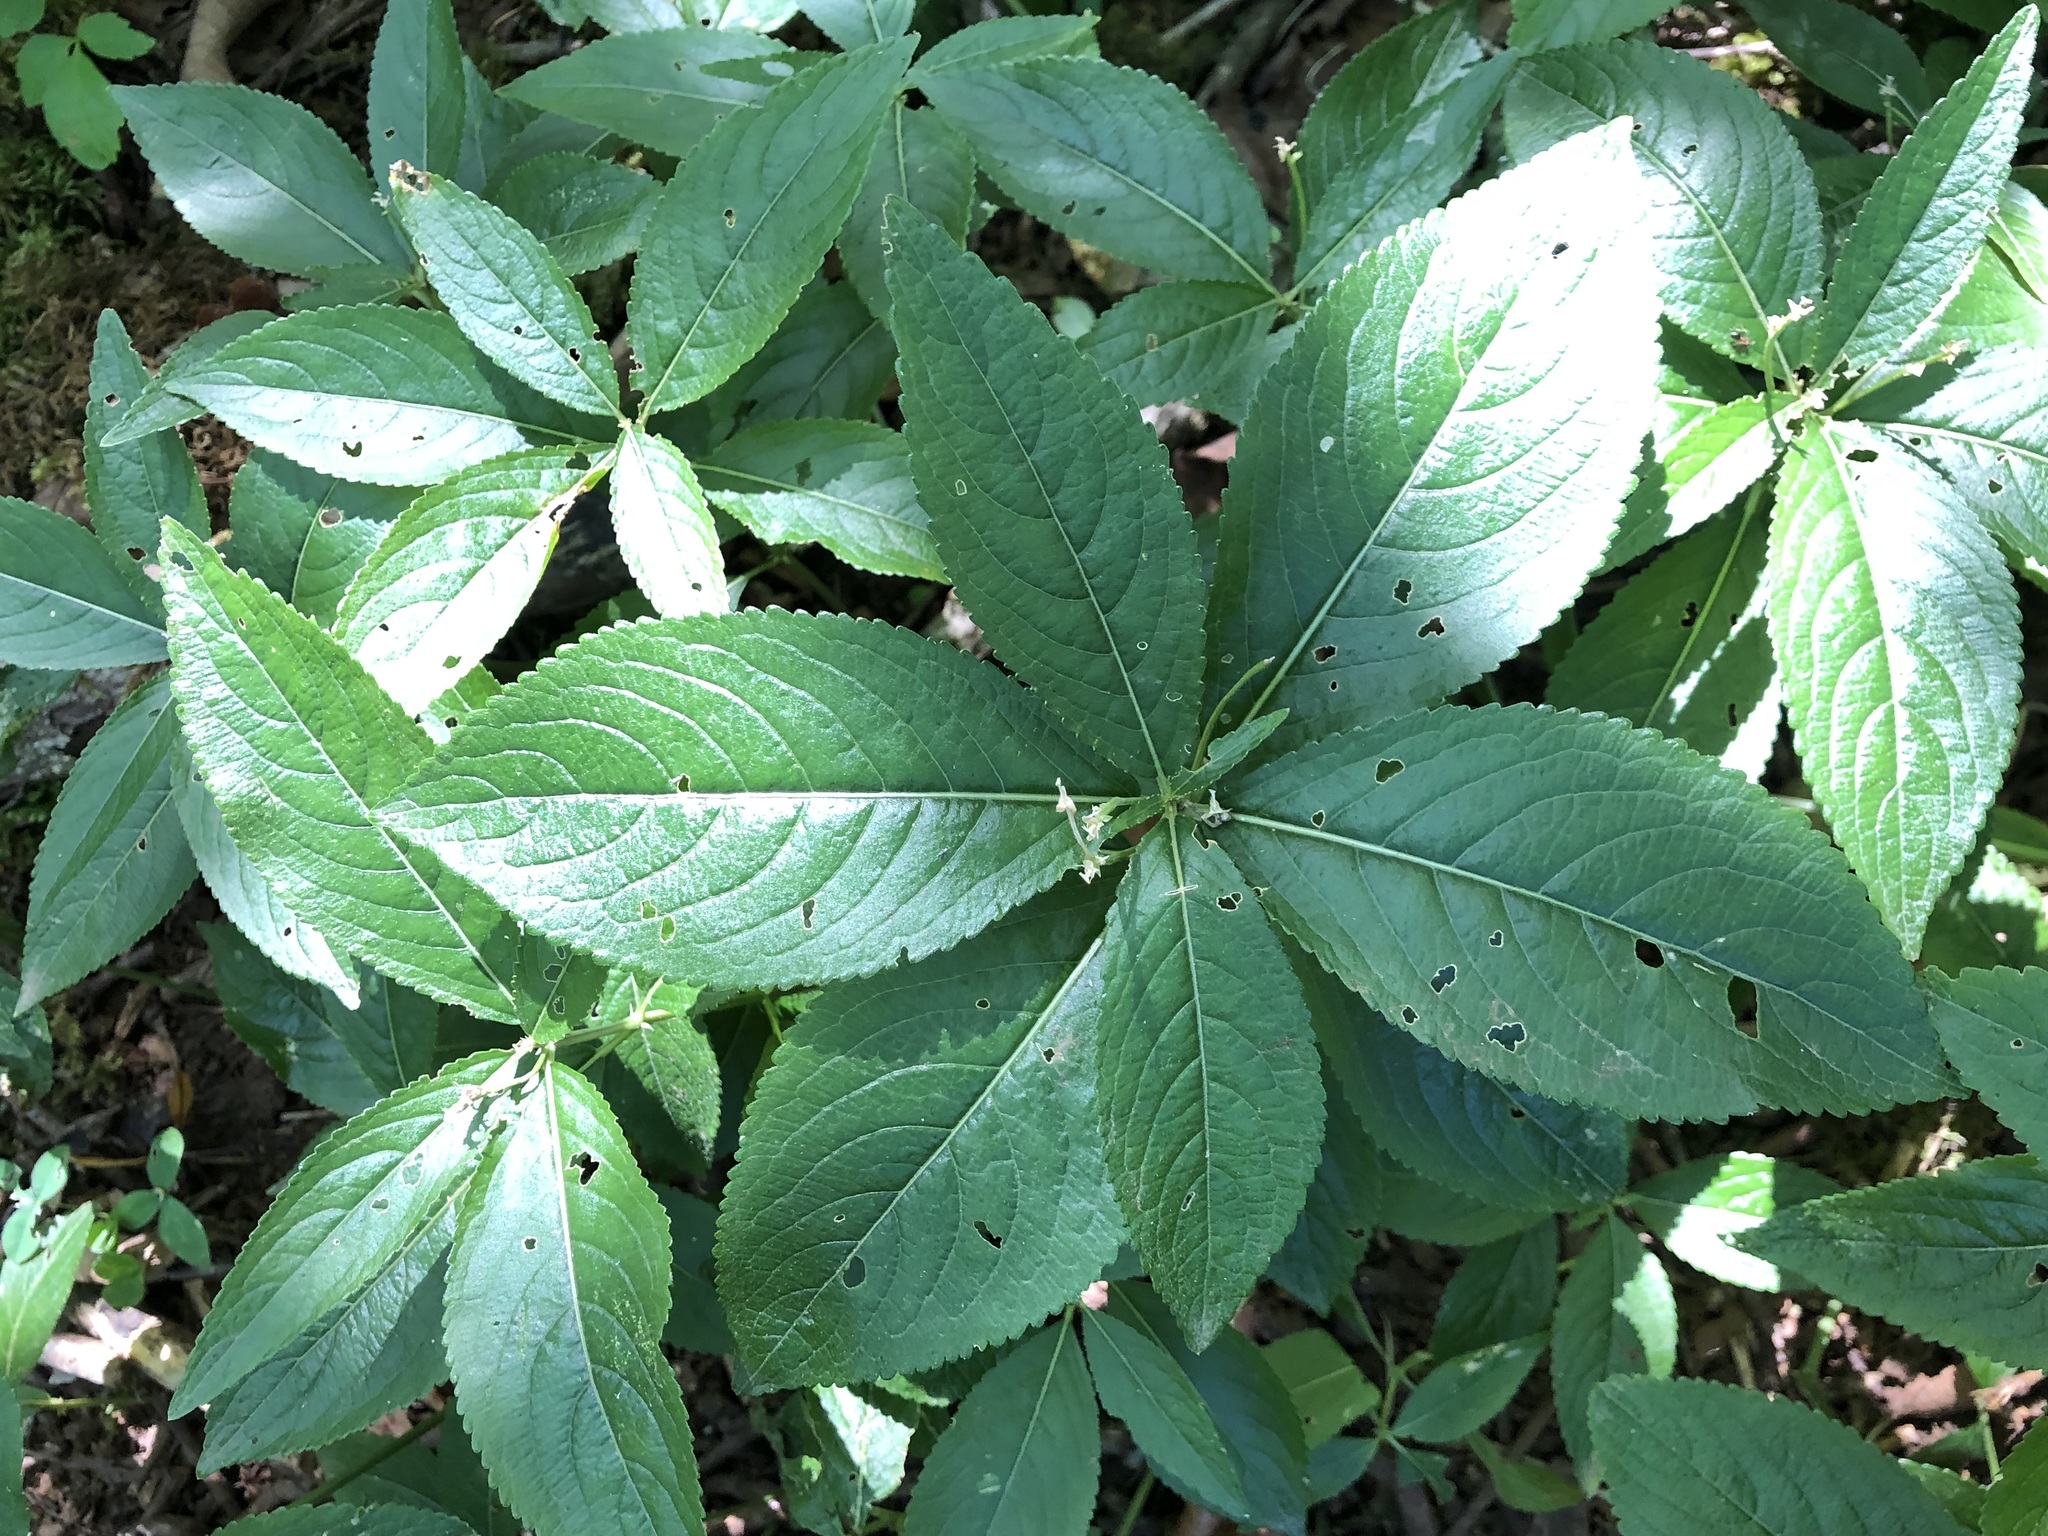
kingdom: Plantae
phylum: Tracheophyta
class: Magnoliopsida
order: Malpighiales
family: Euphorbiaceae
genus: Mercurialis
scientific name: Mercurialis perennis
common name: Dog mercury
